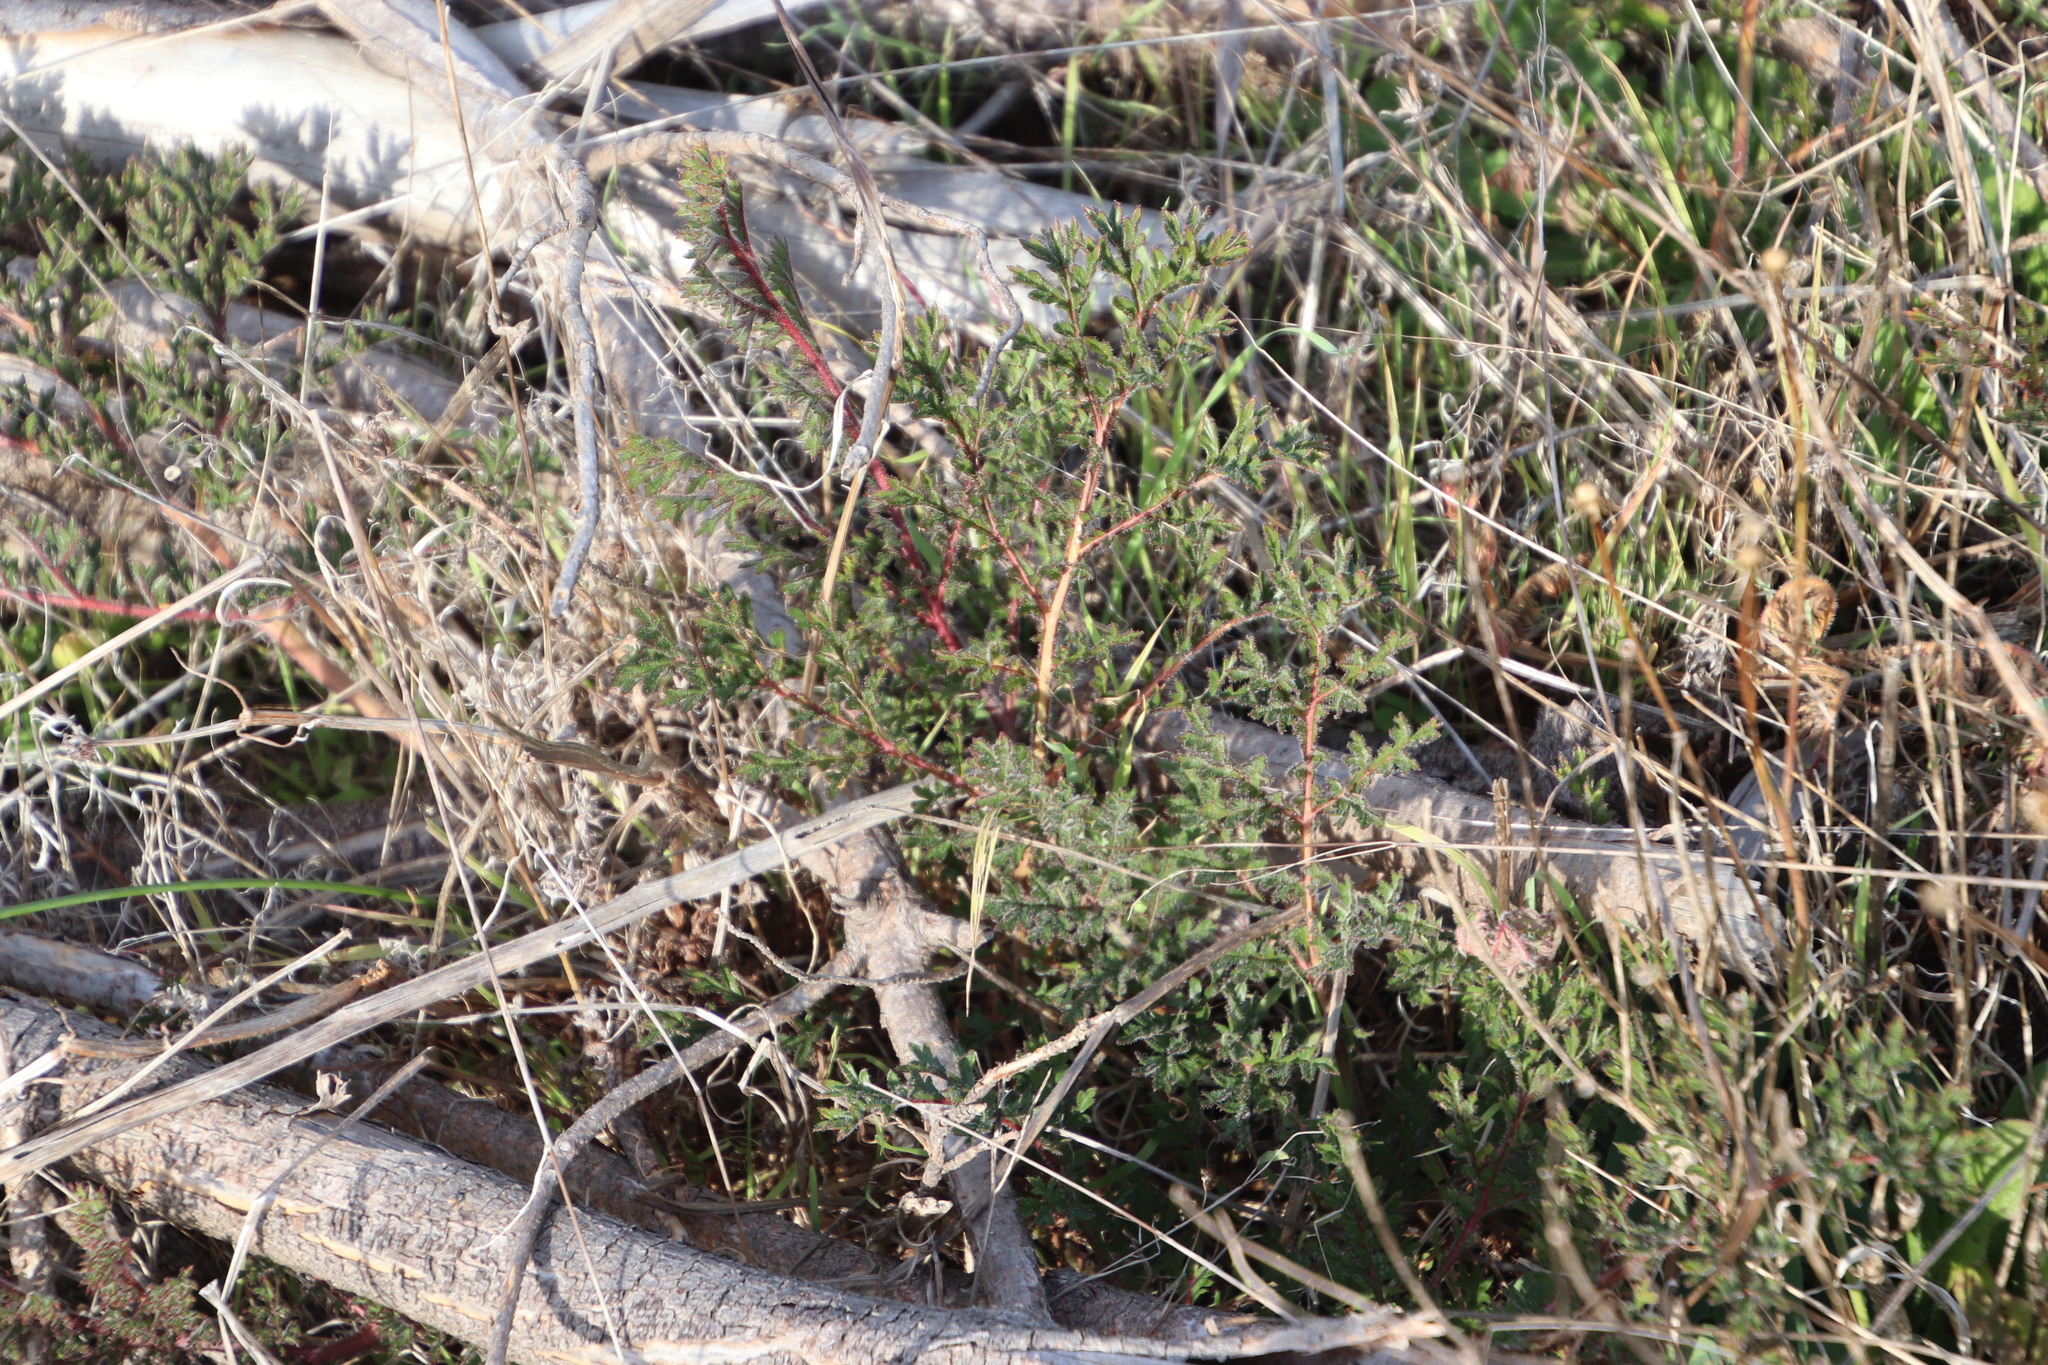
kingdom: Plantae
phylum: Tracheophyta
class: Magnoliopsida
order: Geraniales
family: Geraniaceae
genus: Pelargonium
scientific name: Pelargonium triste
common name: Night-scent pelargonium
